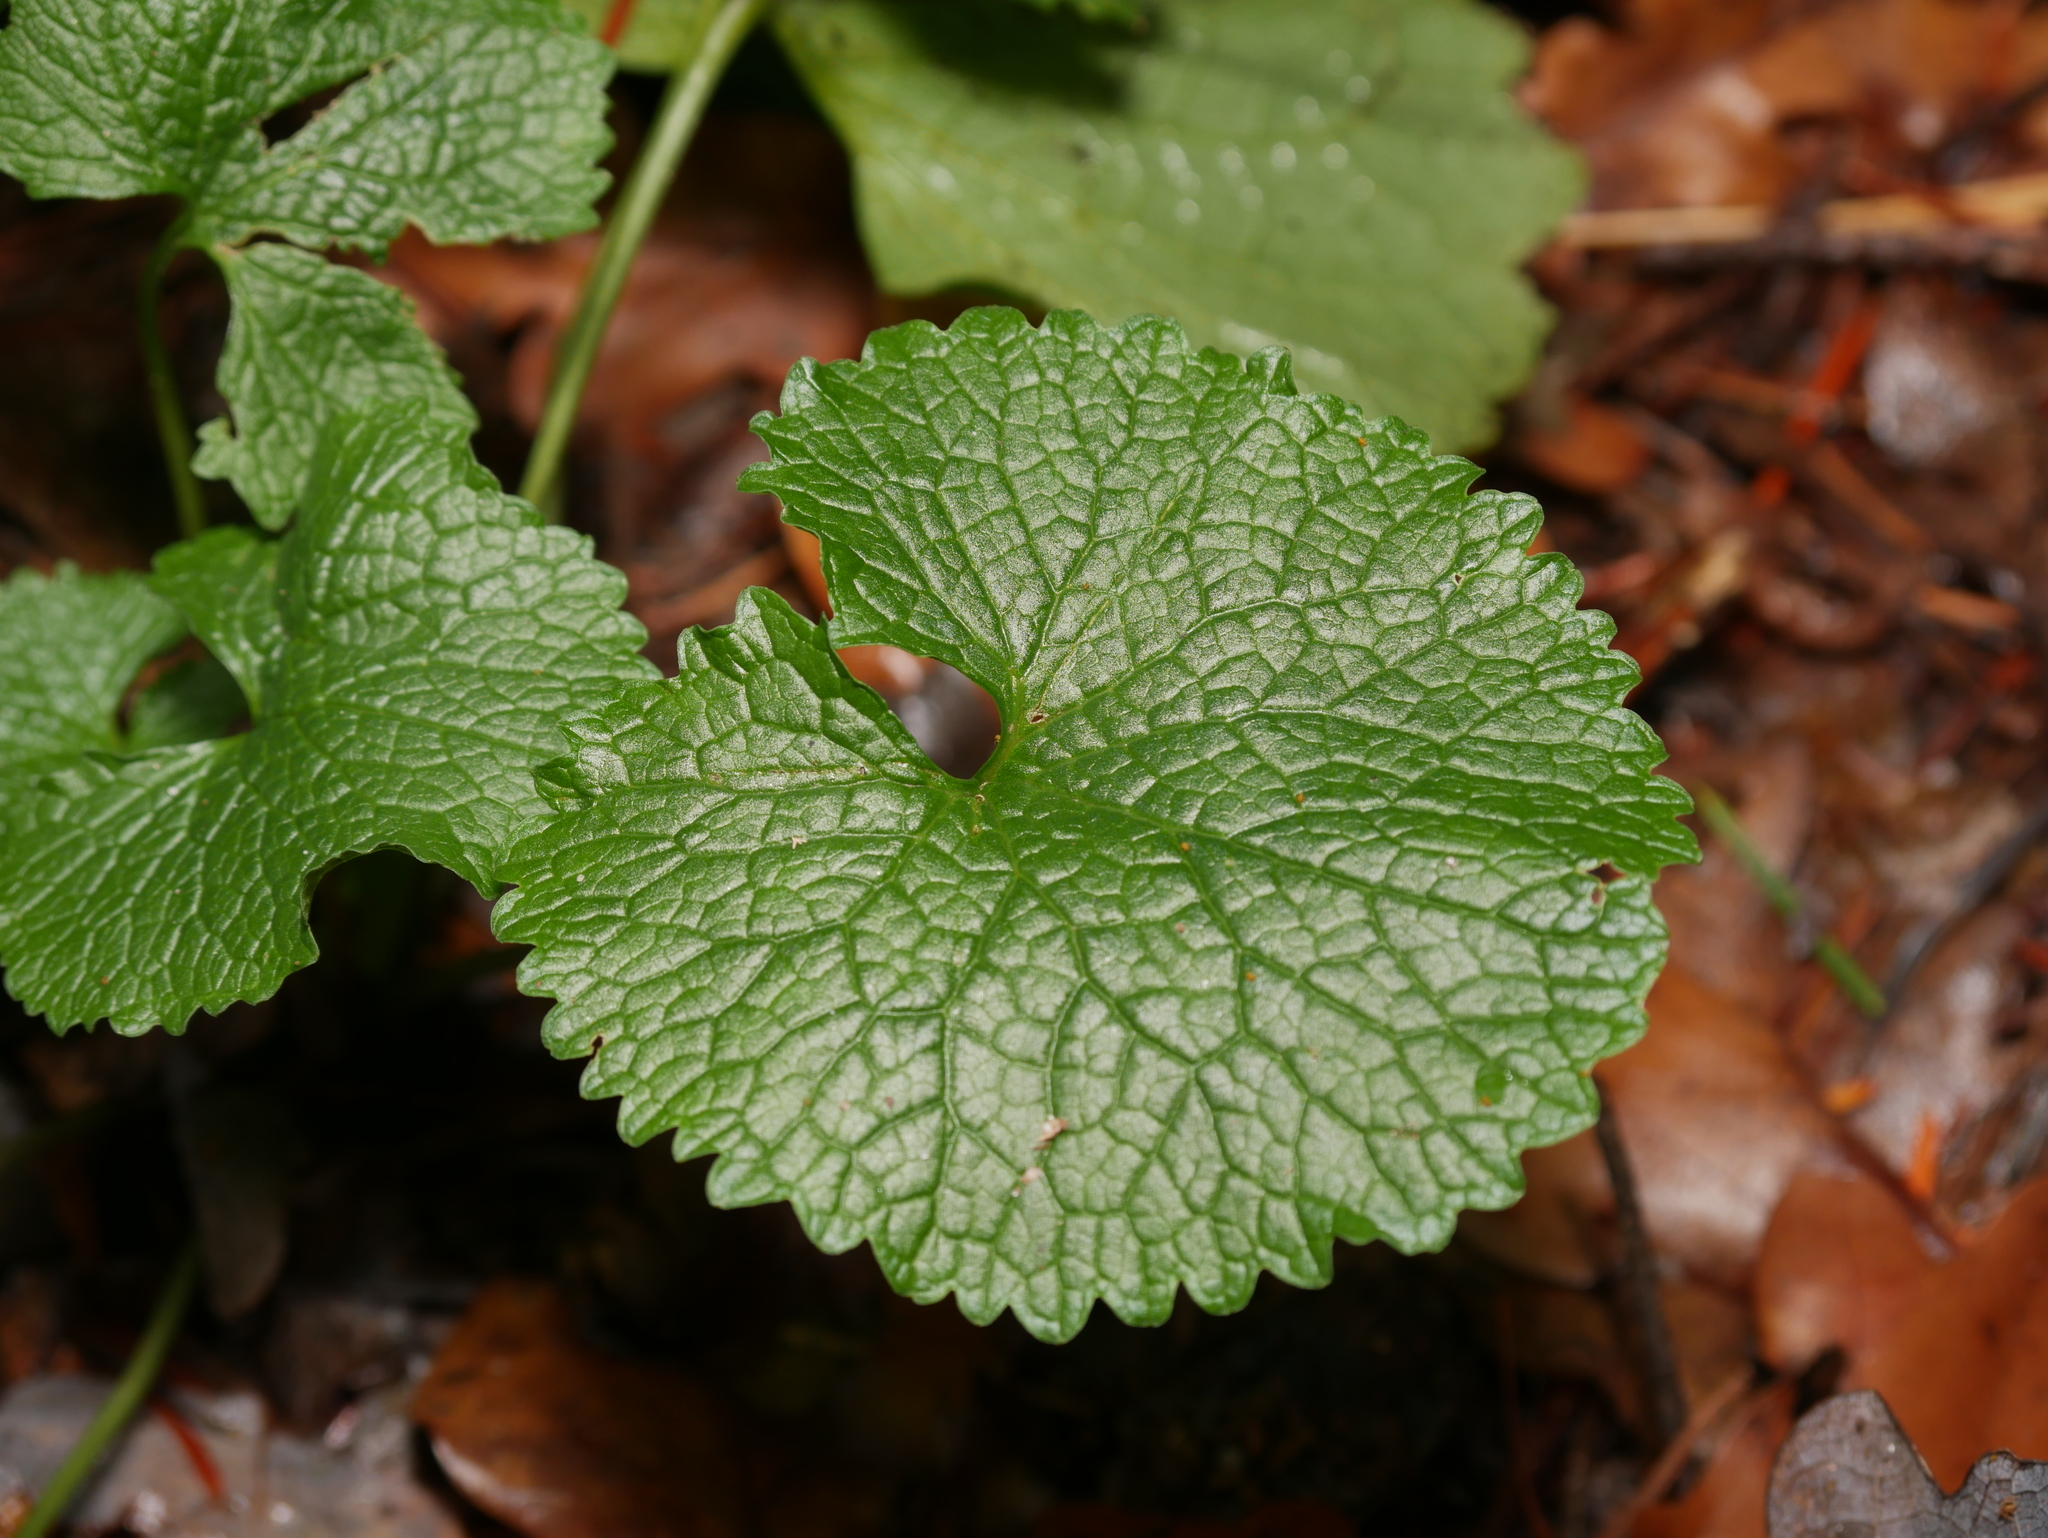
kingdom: Plantae
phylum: Tracheophyta
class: Magnoliopsida
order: Brassicales
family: Brassicaceae
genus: Alliaria
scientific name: Alliaria petiolata
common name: Garlic mustard
